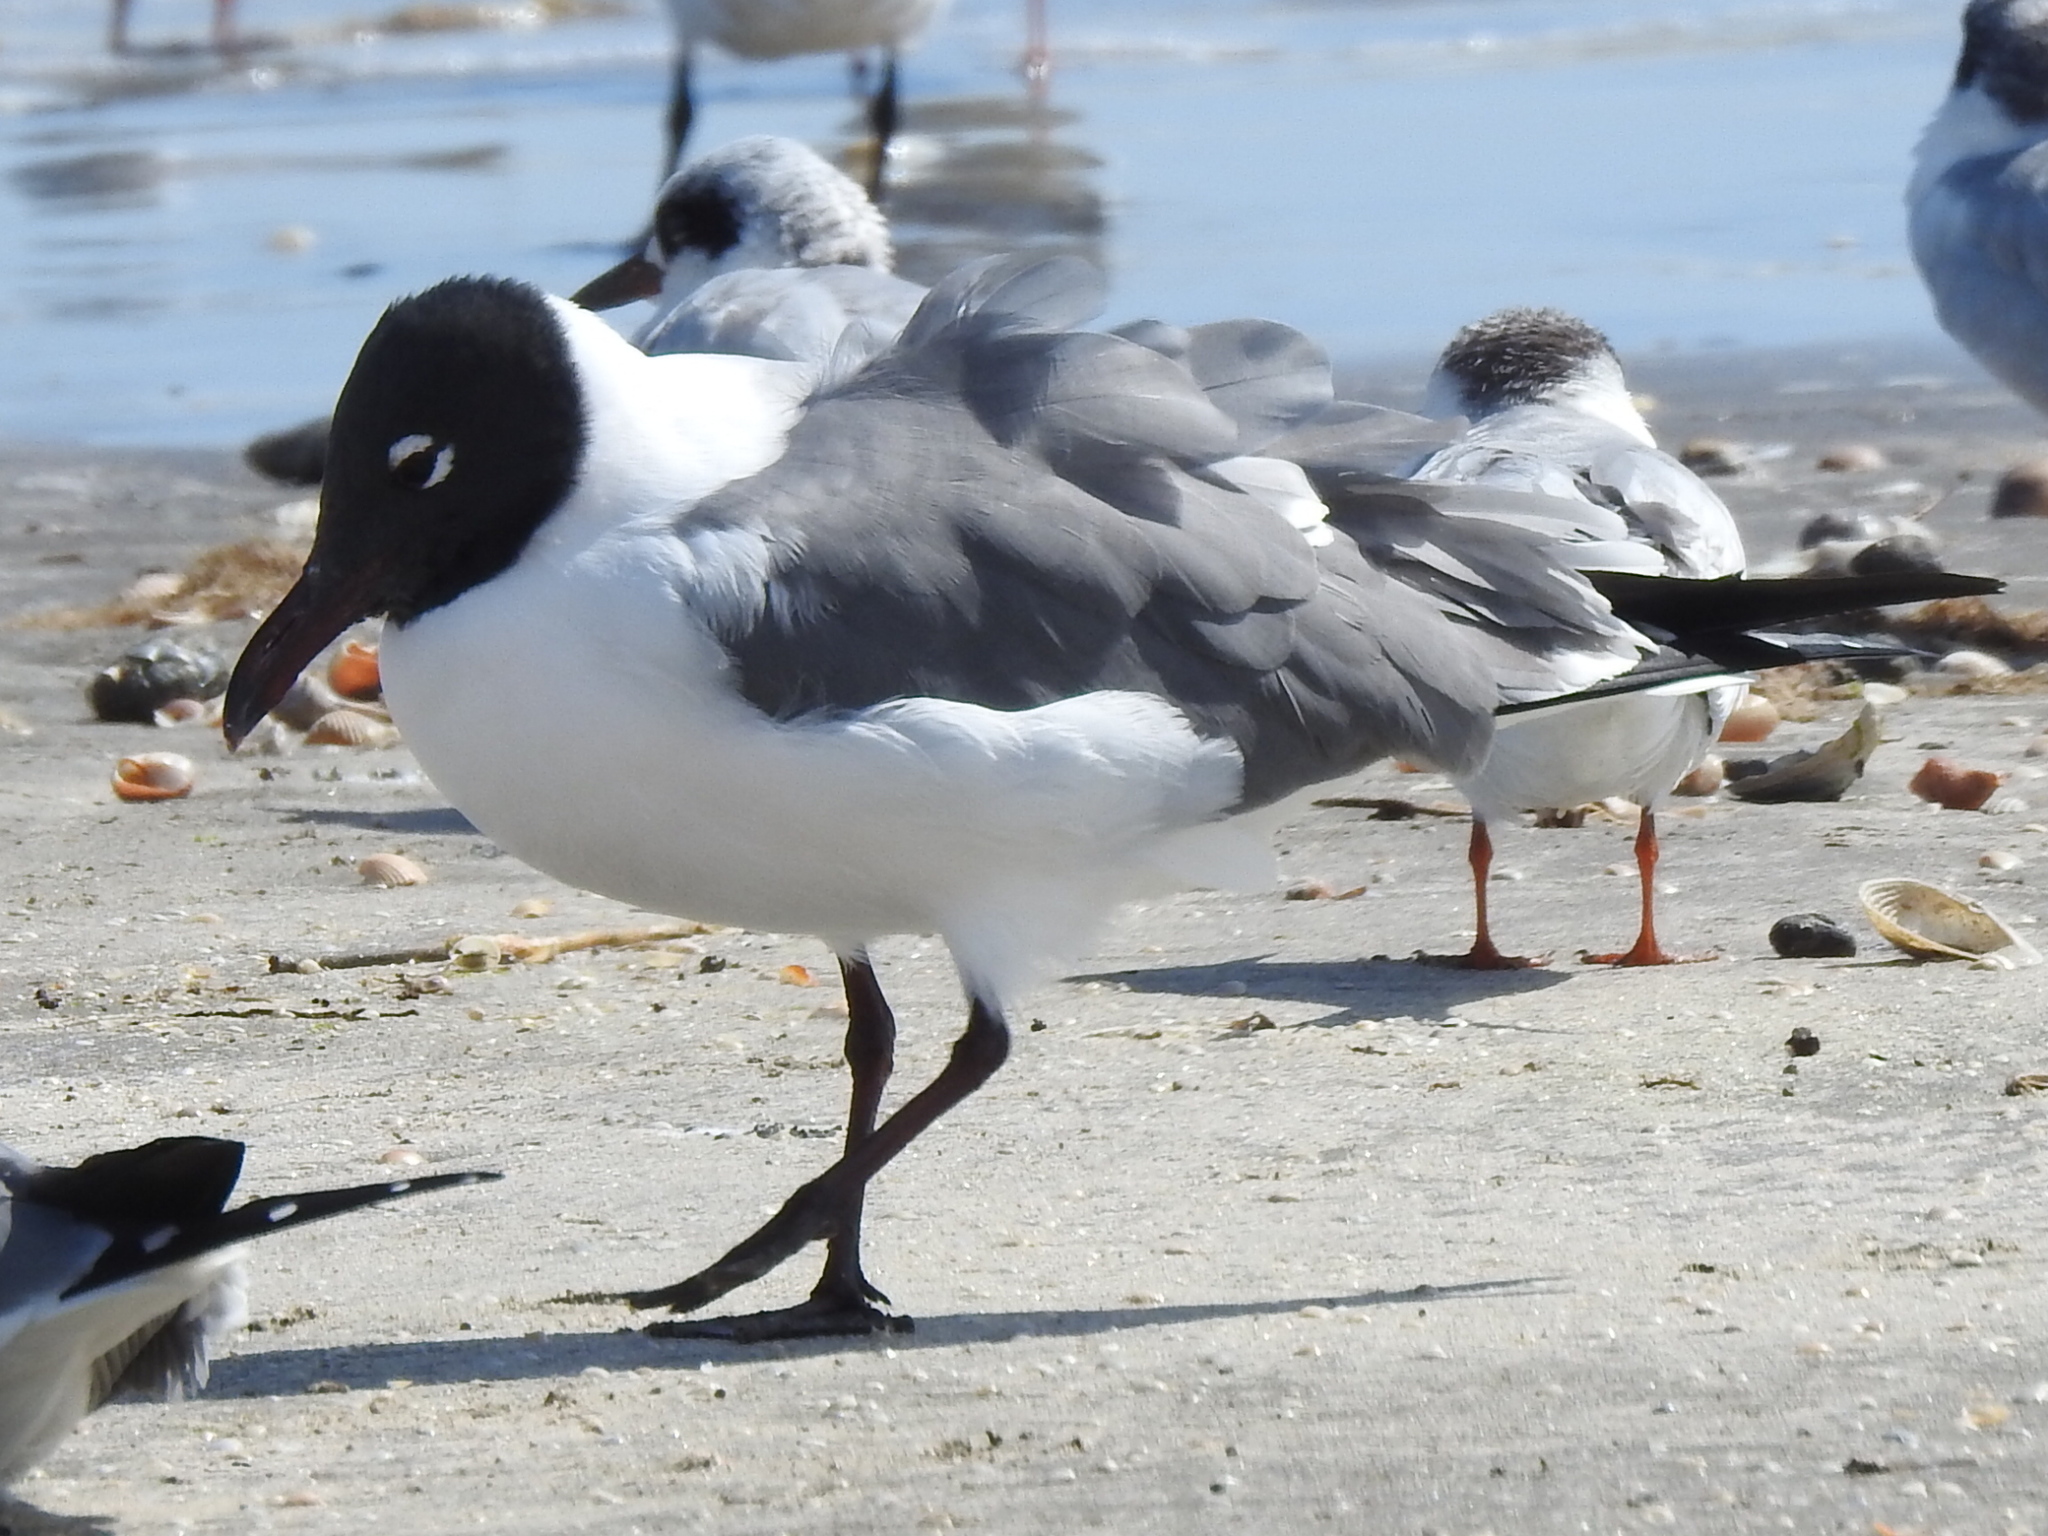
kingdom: Animalia
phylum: Chordata
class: Aves
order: Charadriiformes
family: Laridae
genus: Leucophaeus
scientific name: Leucophaeus atricilla
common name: Laughing gull
